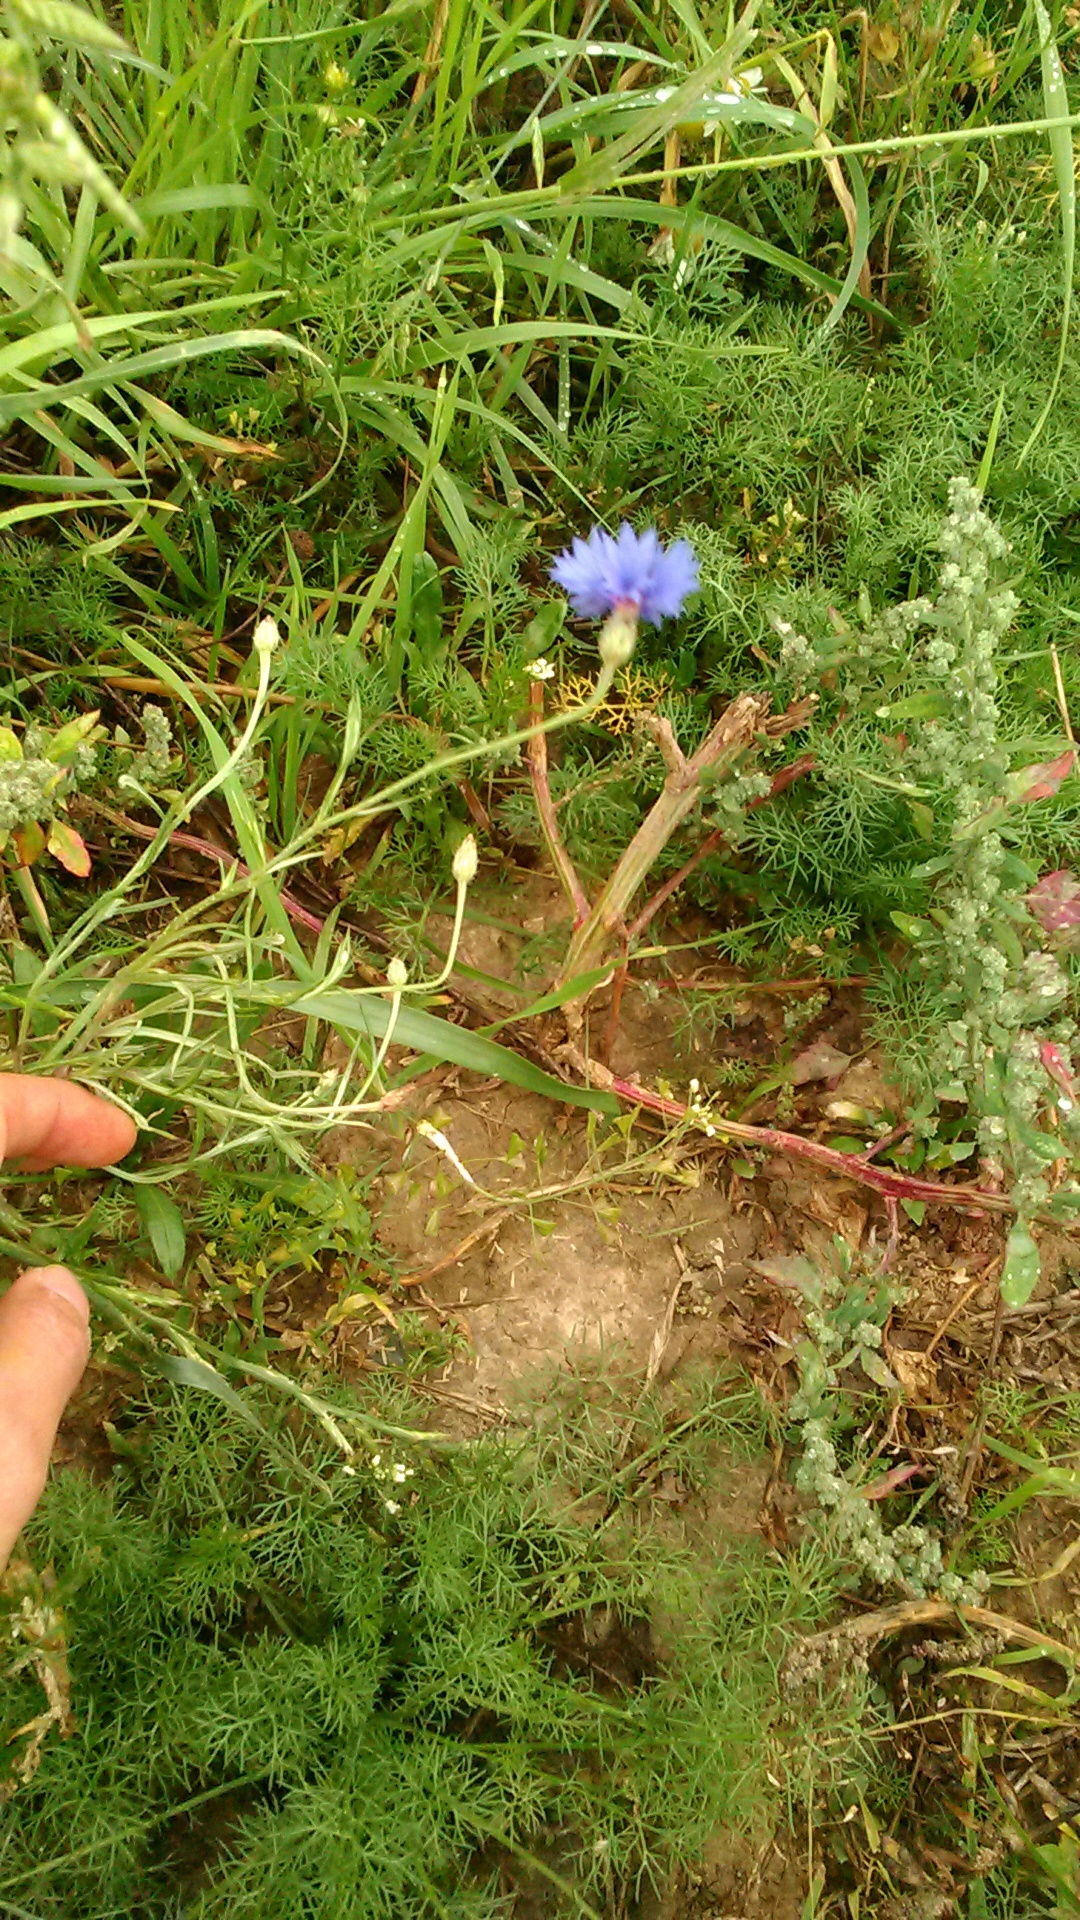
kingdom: Plantae
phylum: Tracheophyta
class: Magnoliopsida
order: Asterales
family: Asteraceae
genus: Centaurea
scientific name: Centaurea cyanus
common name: Cornflower
